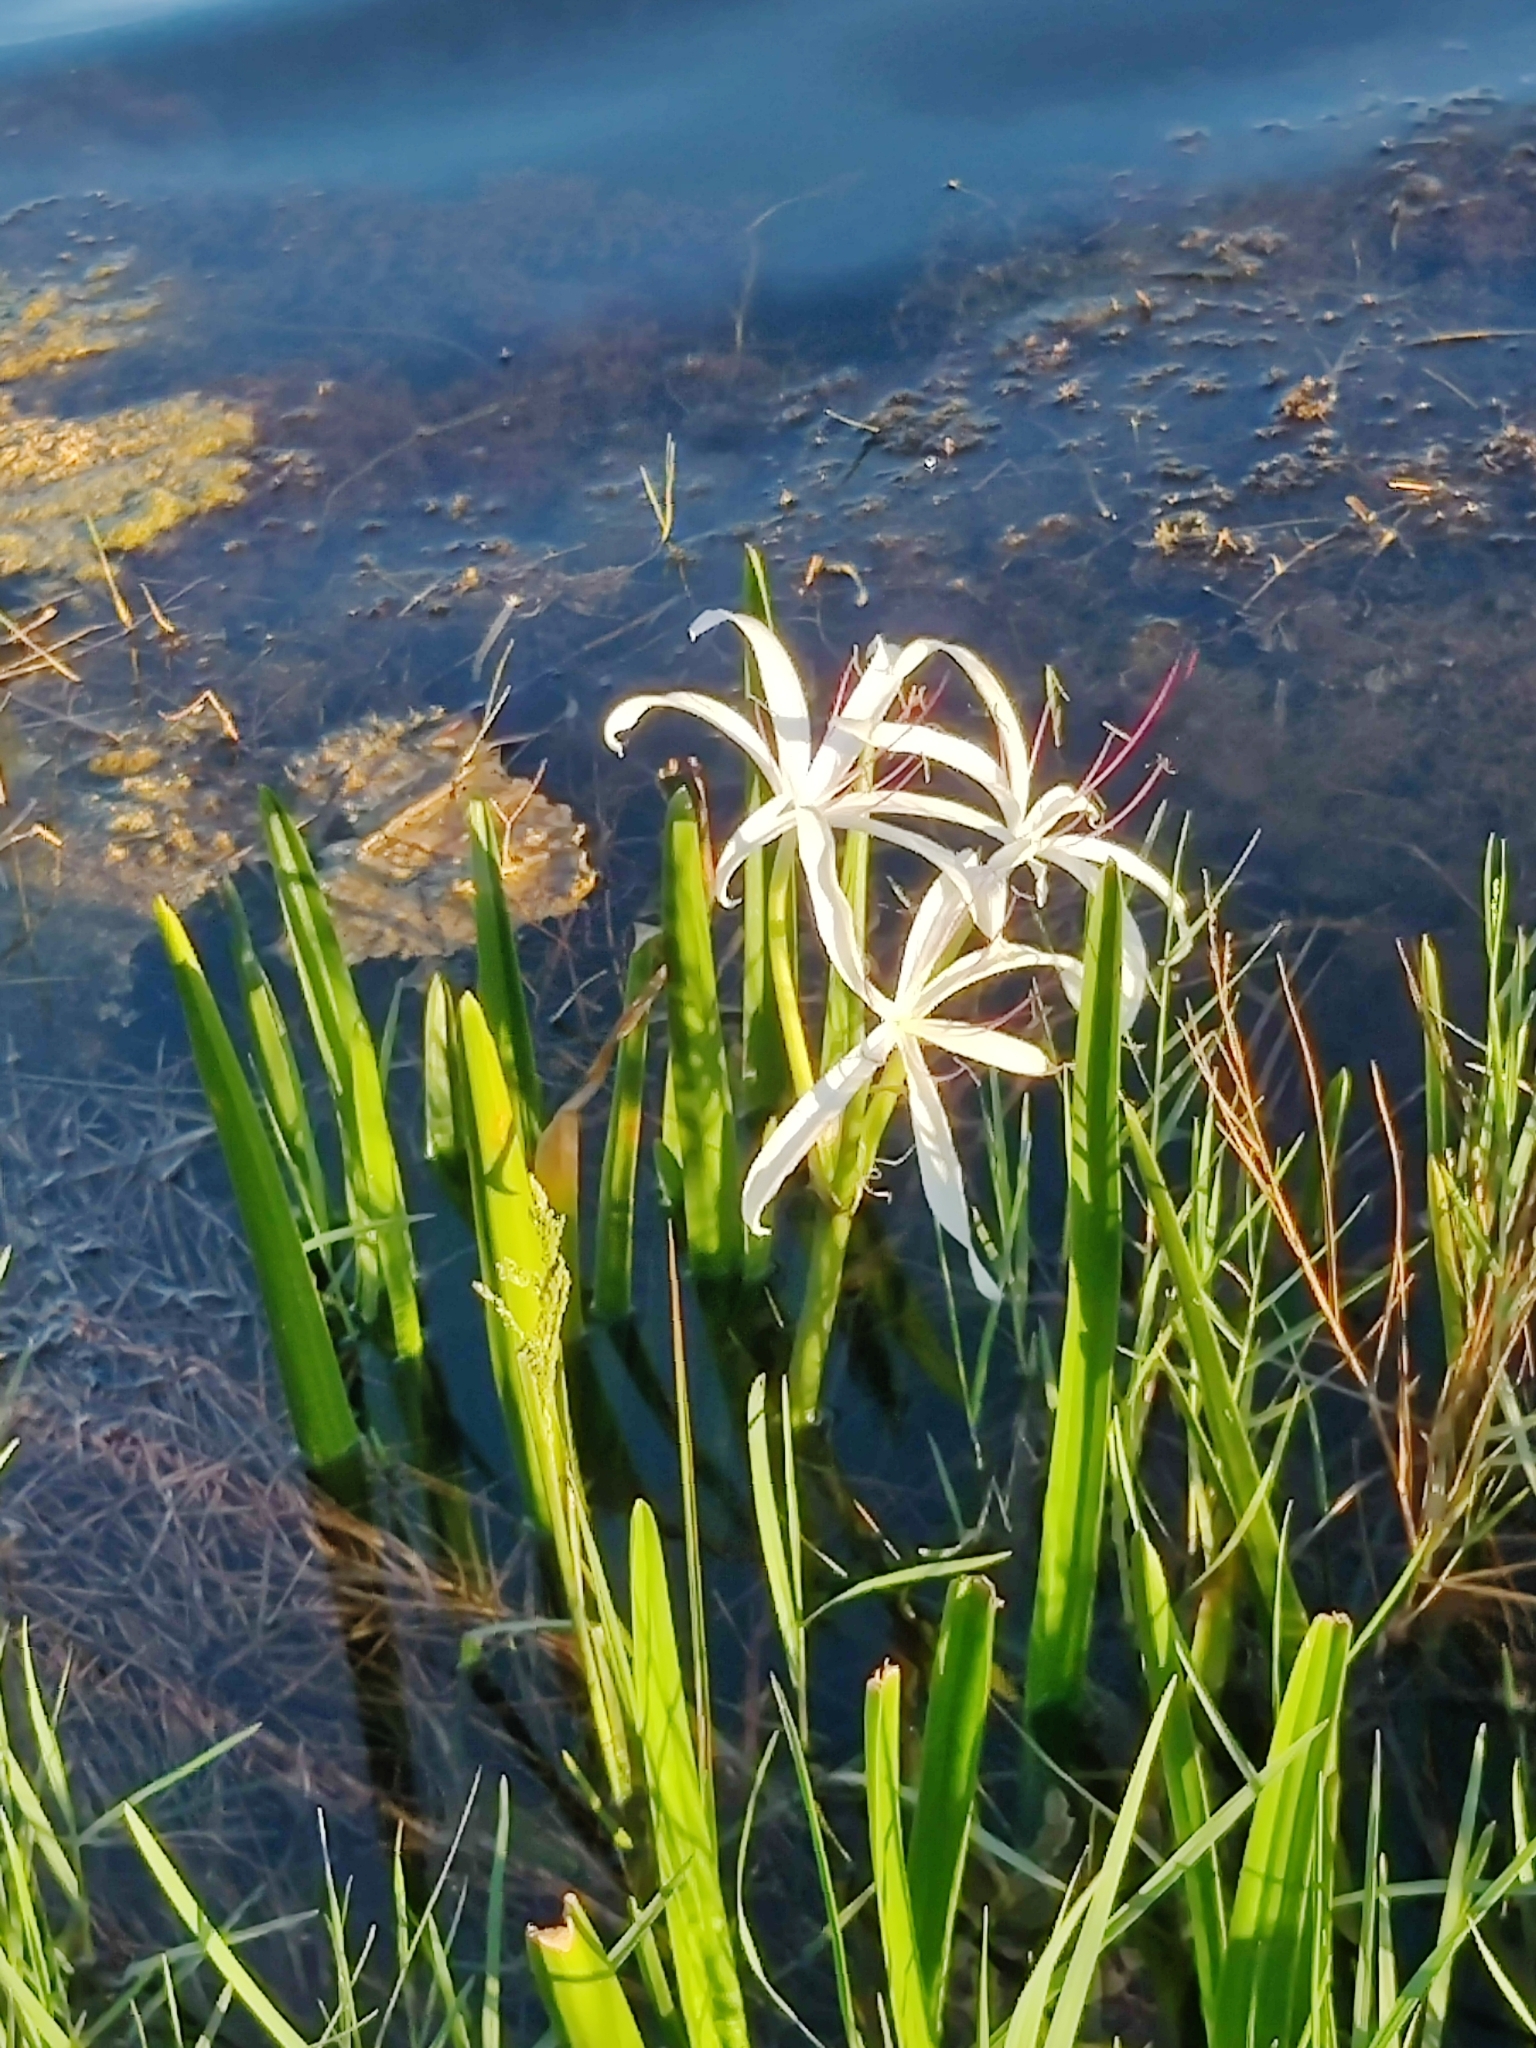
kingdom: Plantae
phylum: Tracheophyta
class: Liliopsida
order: Asparagales
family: Amaryllidaceae
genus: Crinum
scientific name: Crinum americanum
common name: Florida swamp-lily
